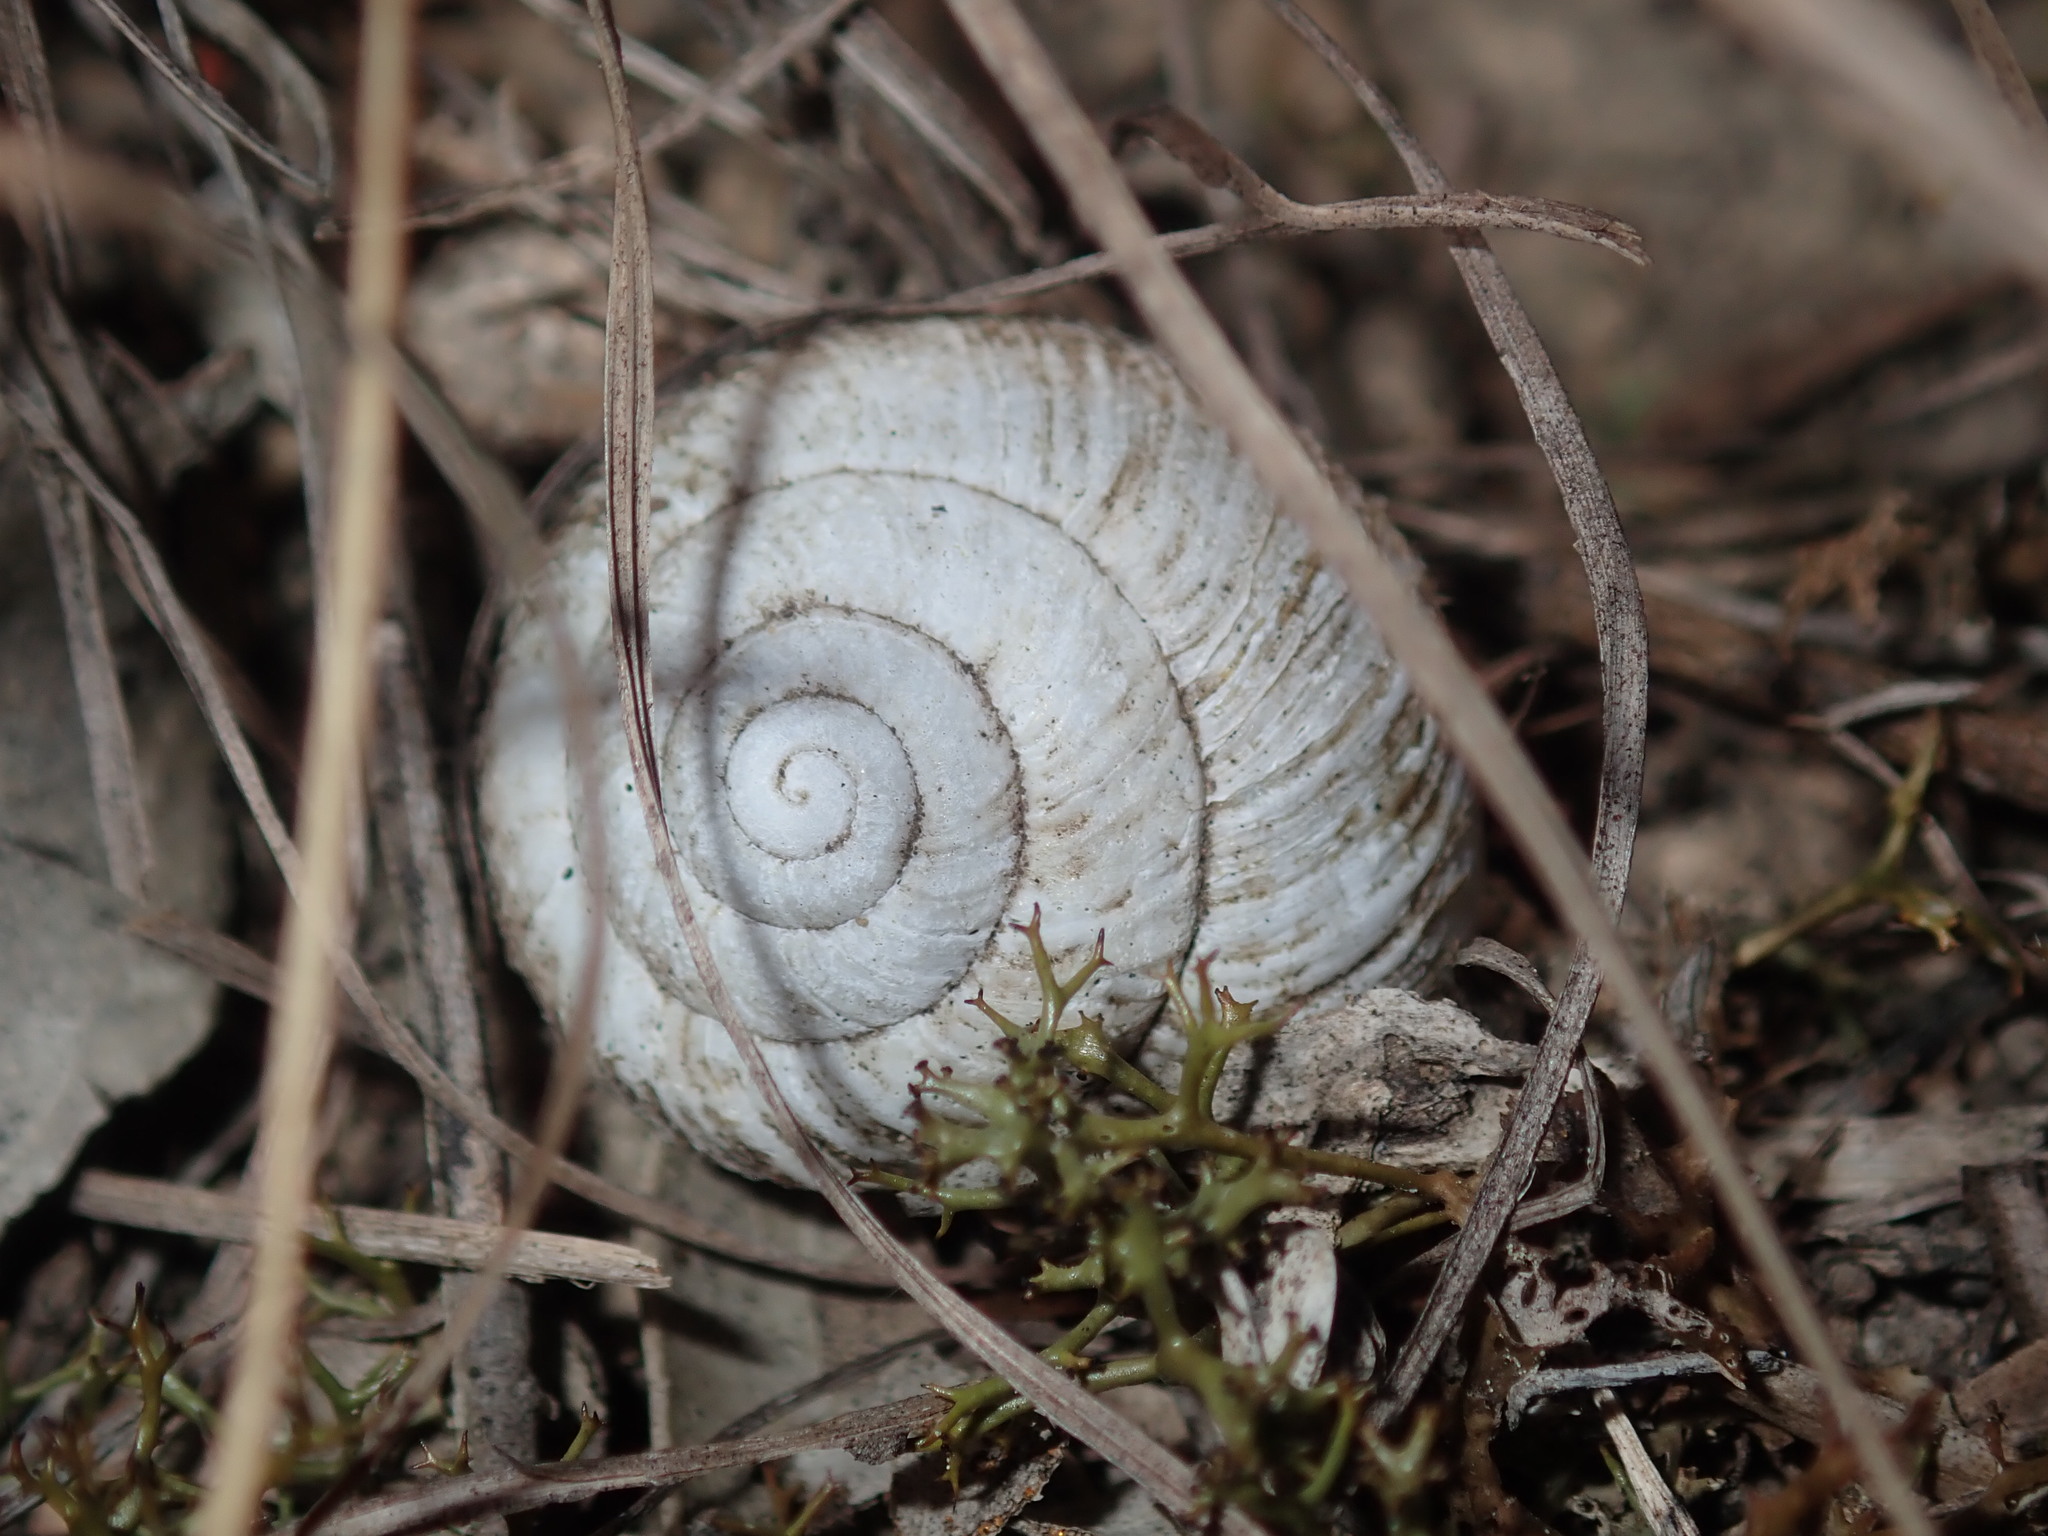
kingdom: Animalia
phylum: Mollusca
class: Gastropoda
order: Stylommatophora
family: Camaenidae
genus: Sauroconcha
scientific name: Sauroconcha sheai
